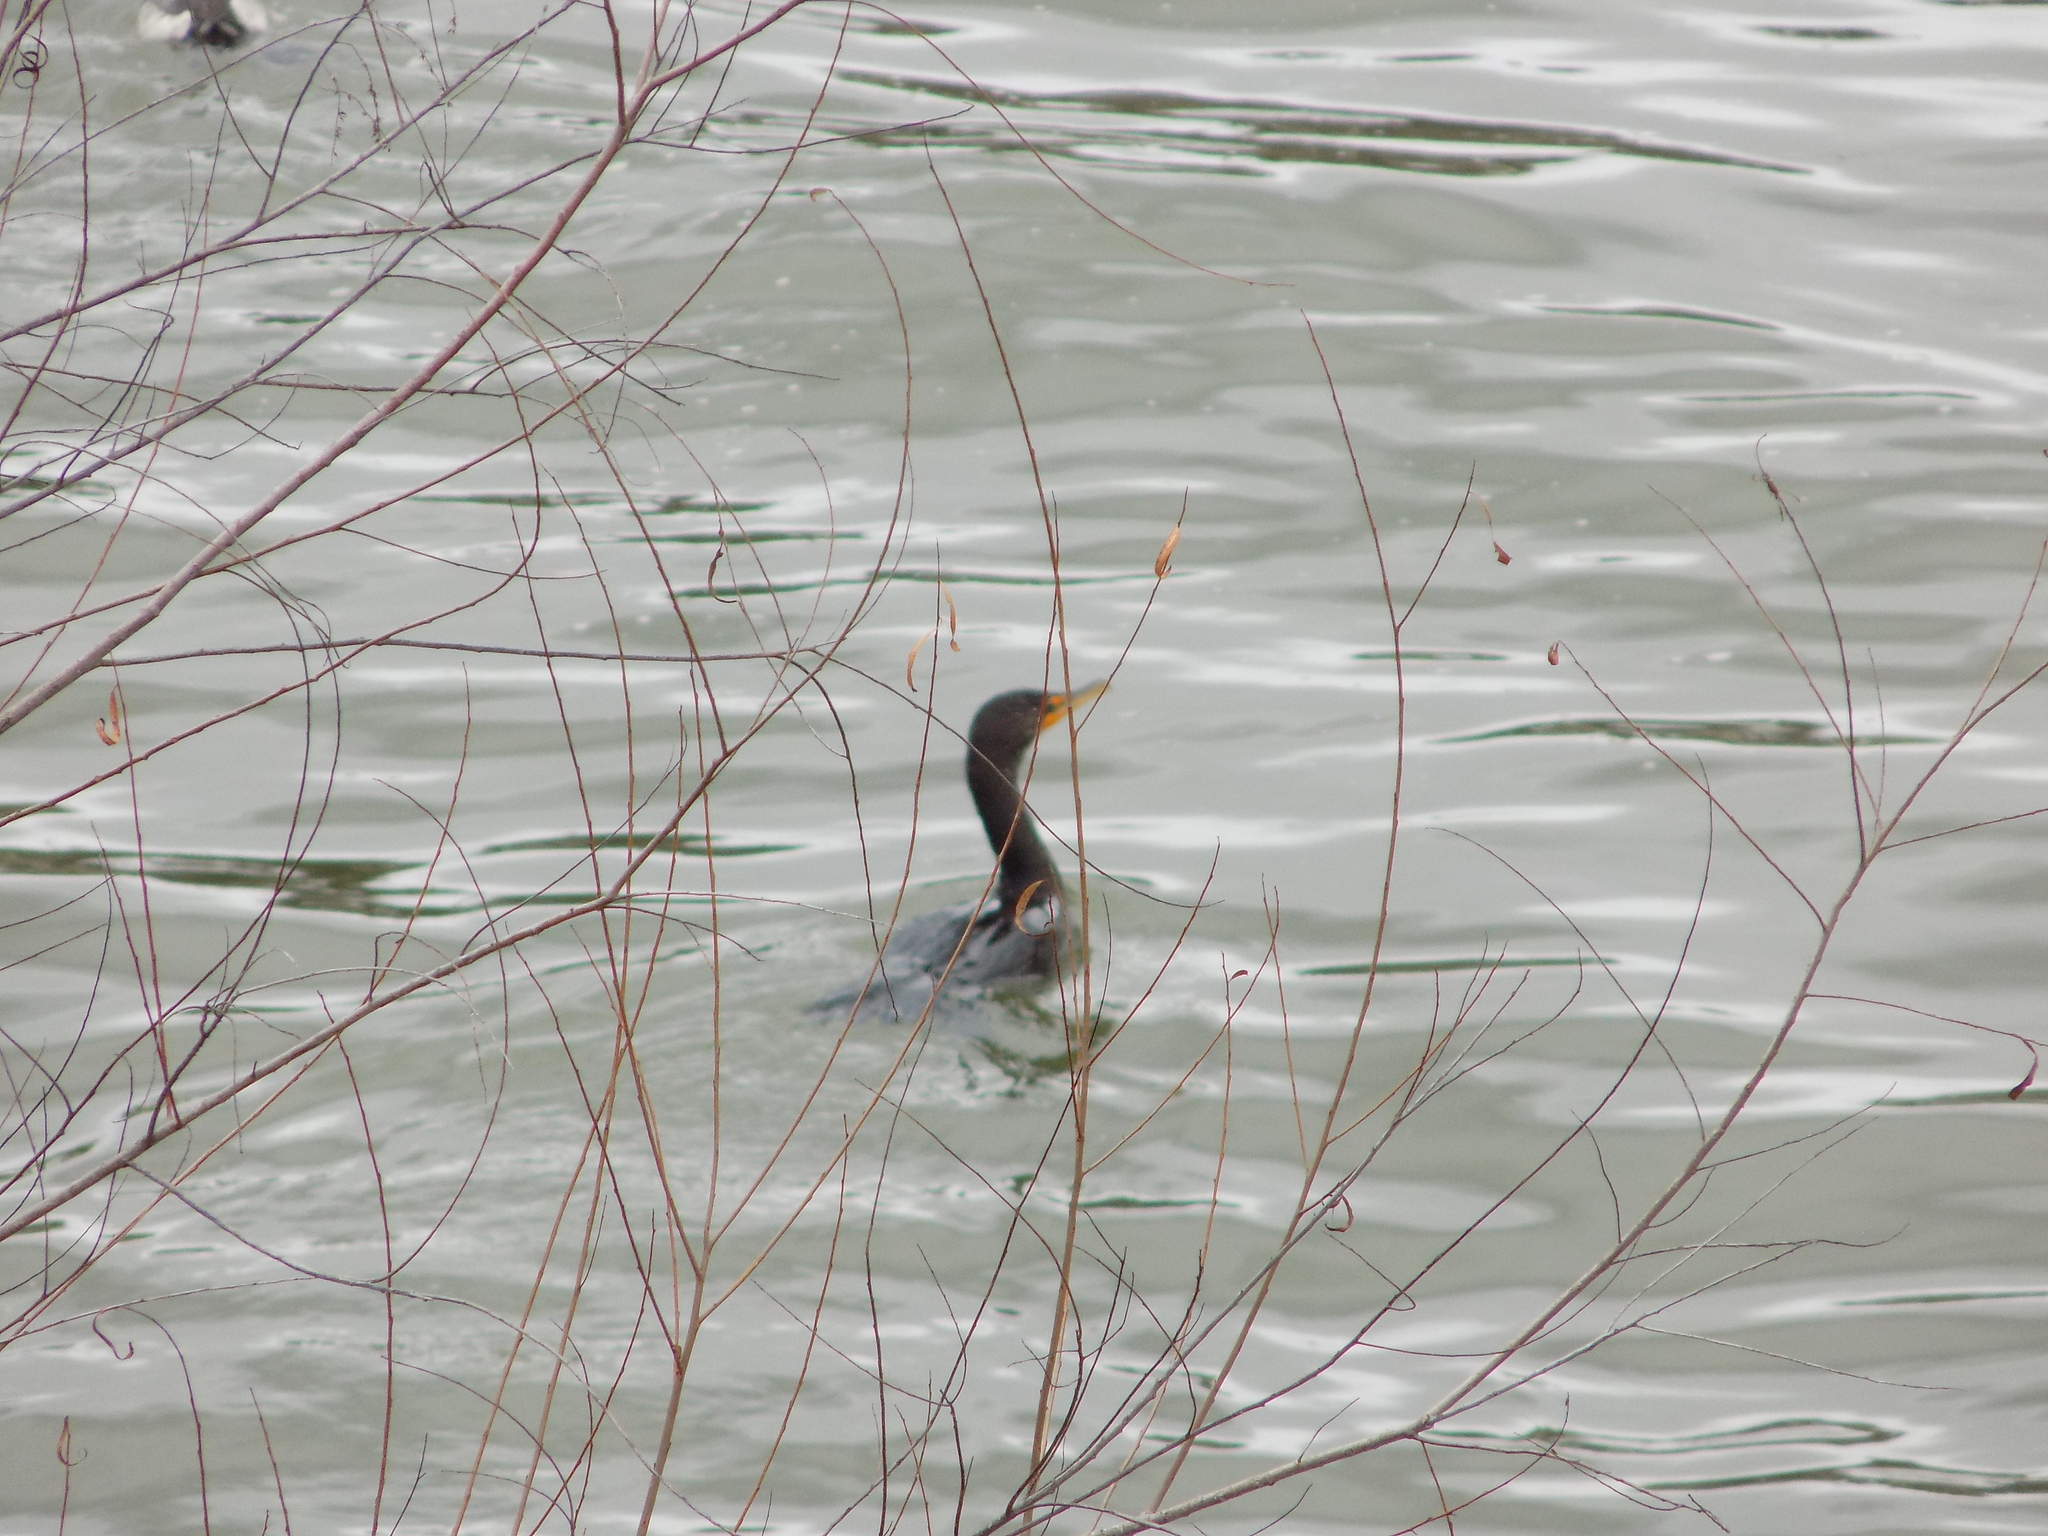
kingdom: Animalia
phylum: Chordata
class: Aves
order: Suliformes
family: Phalacrocoracidae
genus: Phalacrocorax
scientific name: Phalacrocorax auritus
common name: Double-crested cormorant
